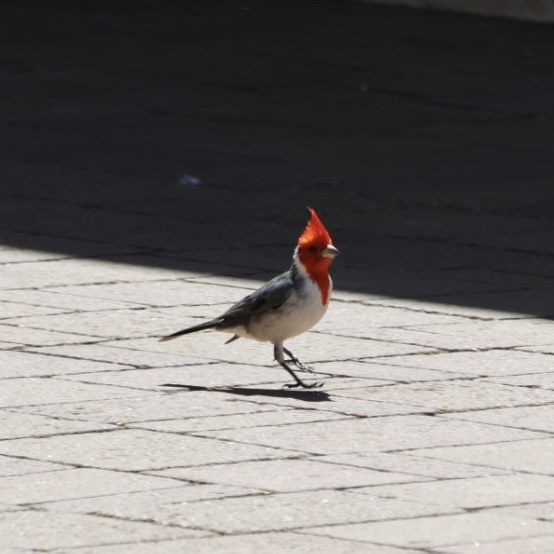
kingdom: Animalia
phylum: Chordata
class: Aves
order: Passeriformes
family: Thraupidae
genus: Paroaria
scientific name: Paroaria coronata
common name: Red-crested cardinal
